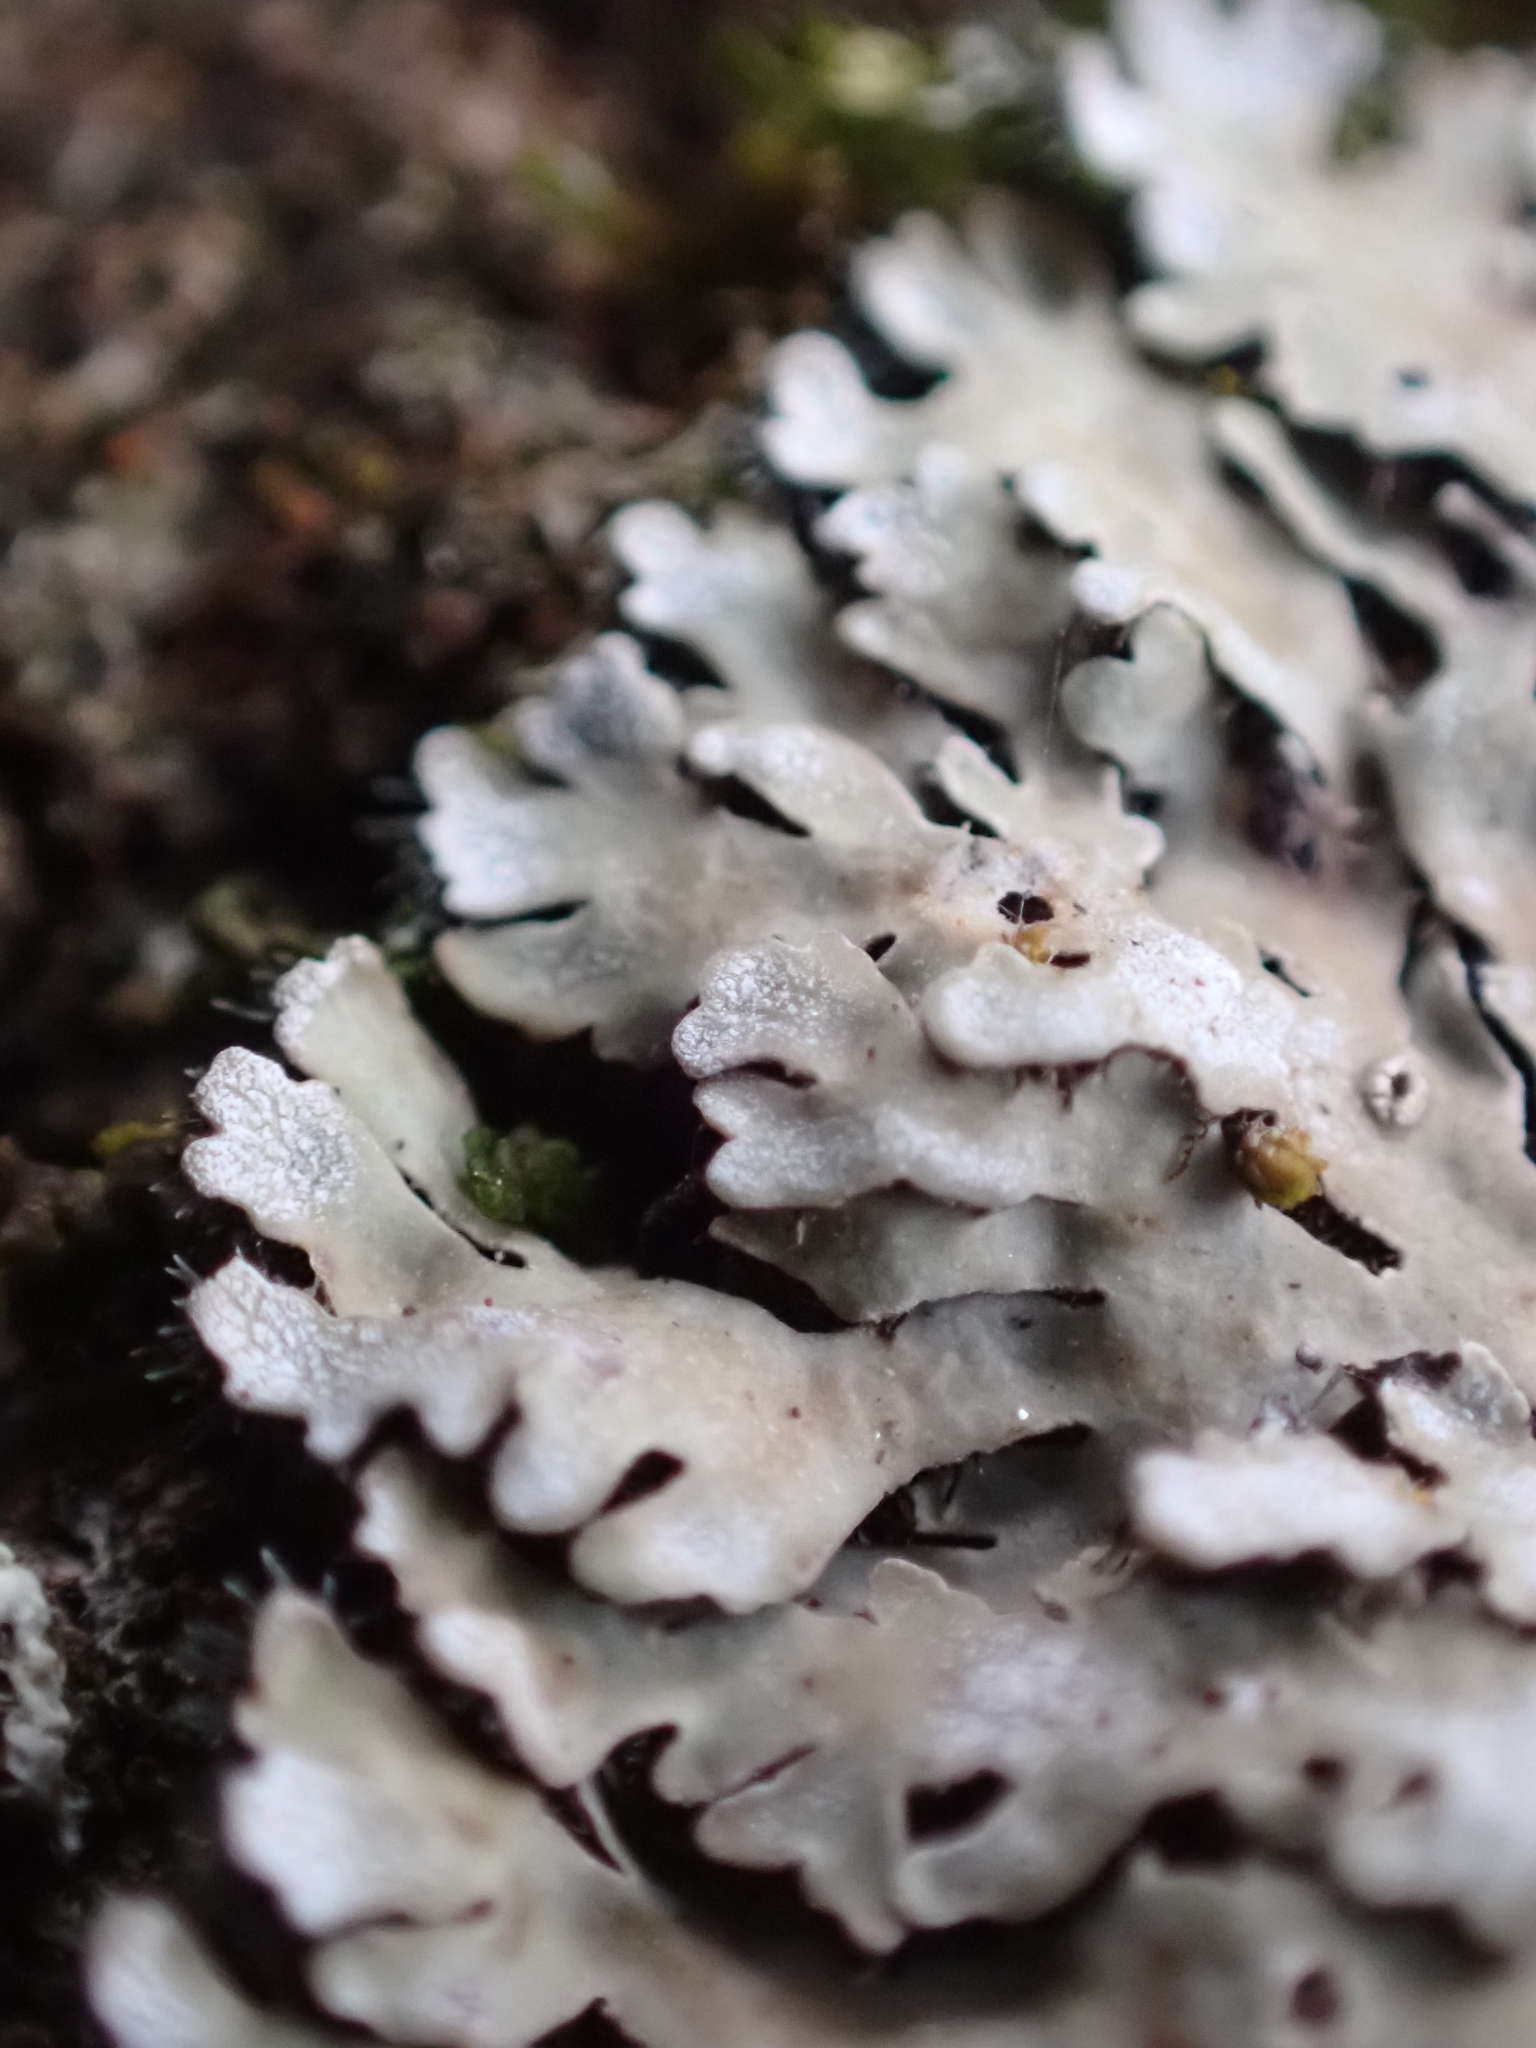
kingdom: Fungi
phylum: Ascomycota
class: Lecanoromycetes
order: Caliciales
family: Physciaceae
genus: Physconia
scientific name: Physconia distorta
